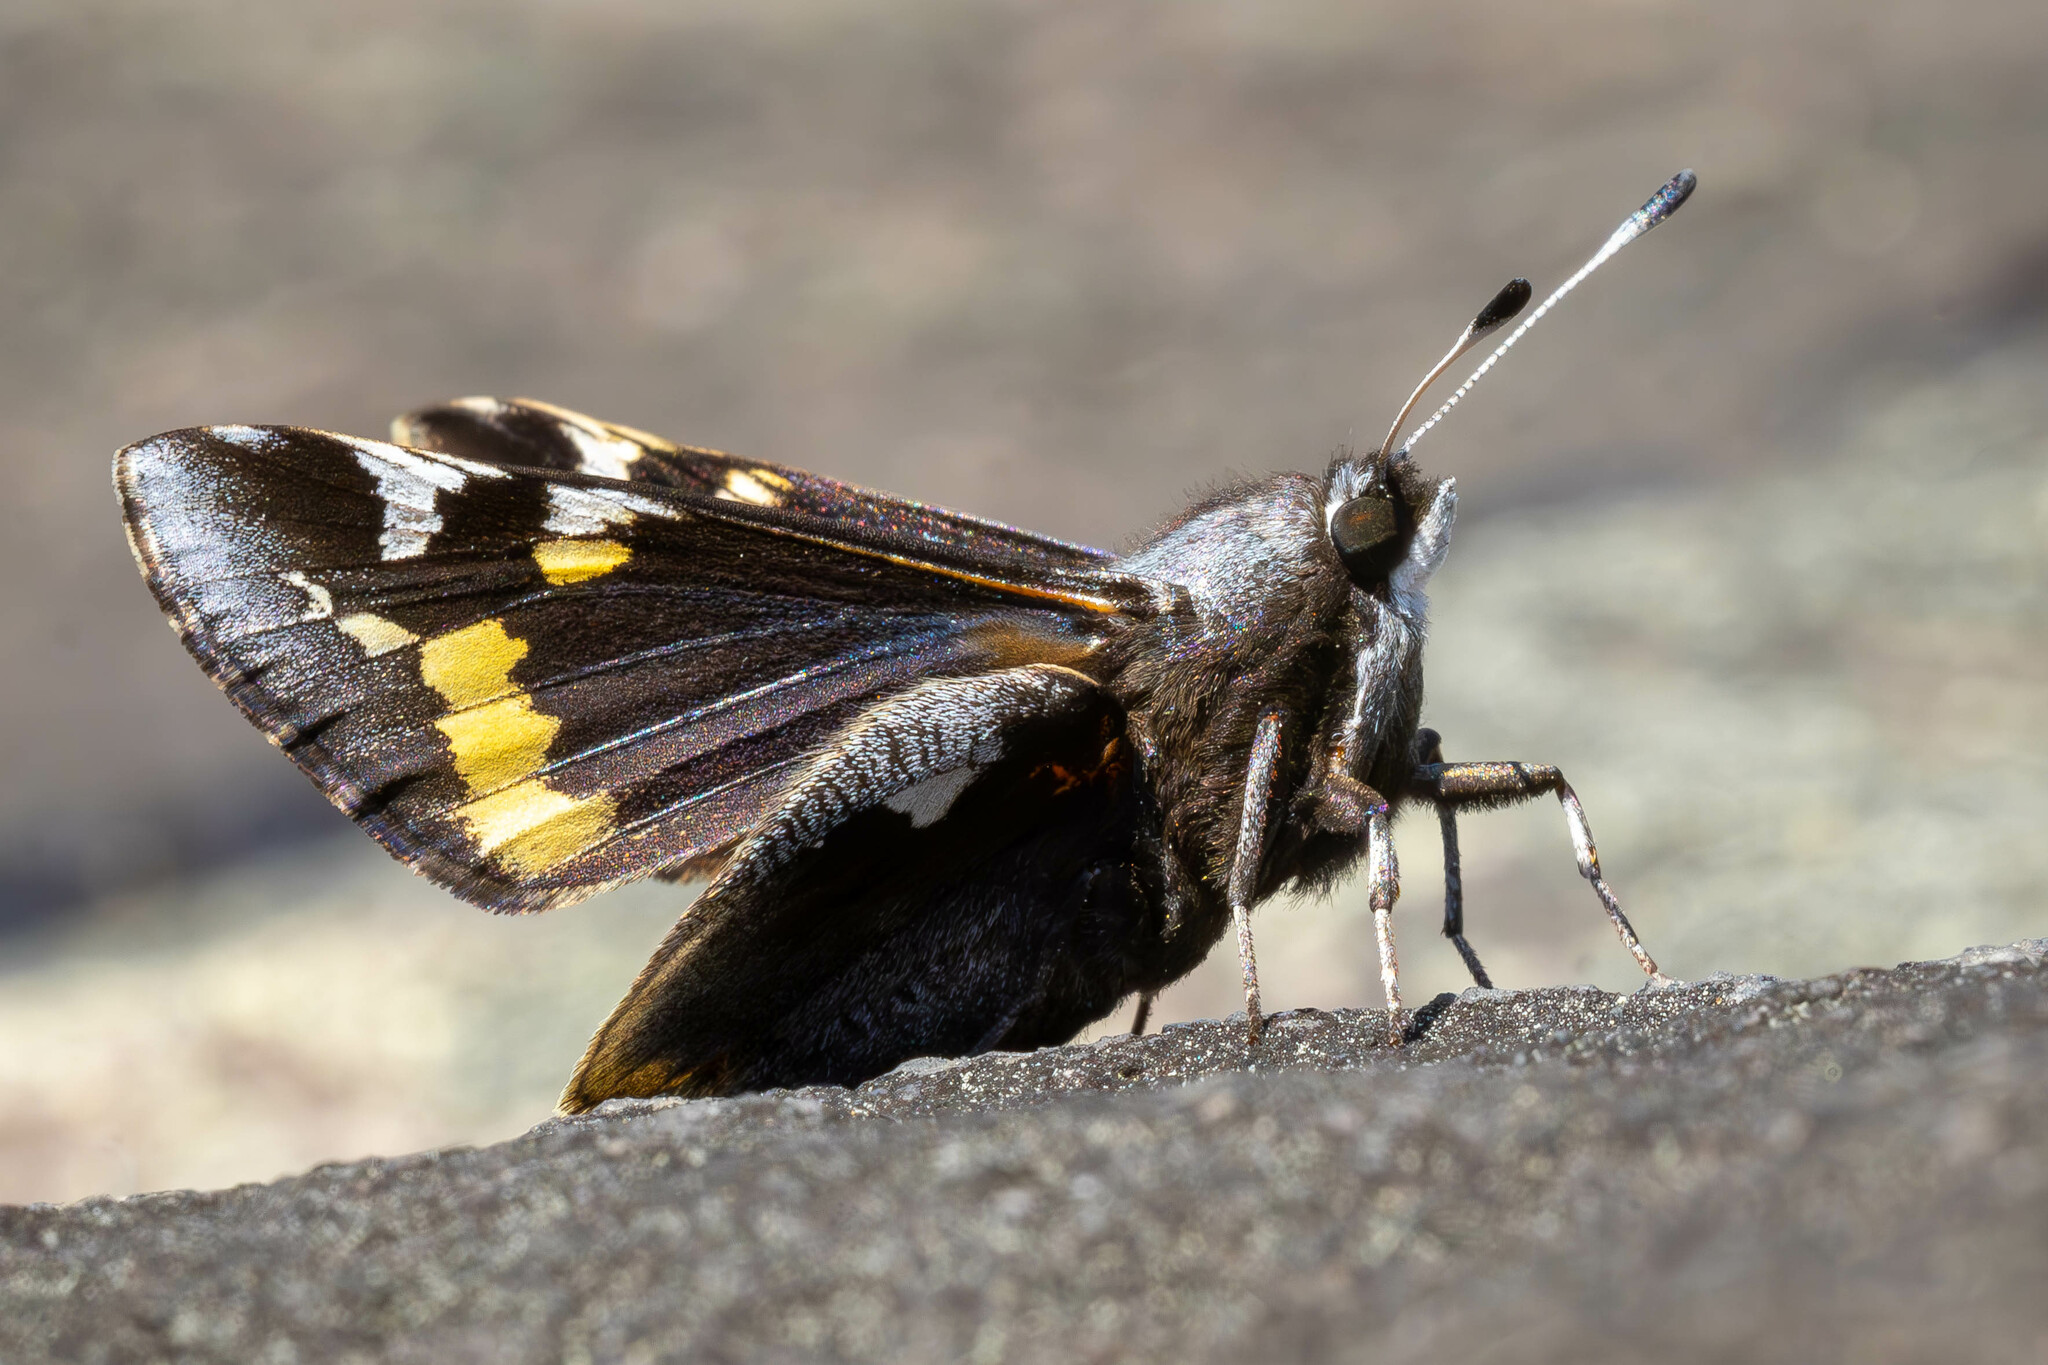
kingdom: Animalia
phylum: Arthropoda
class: Insecta
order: Lepidoptera
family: Hesperiidae
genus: Megathymus
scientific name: Megathymus yuccae
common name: Yucca giant-skipper
